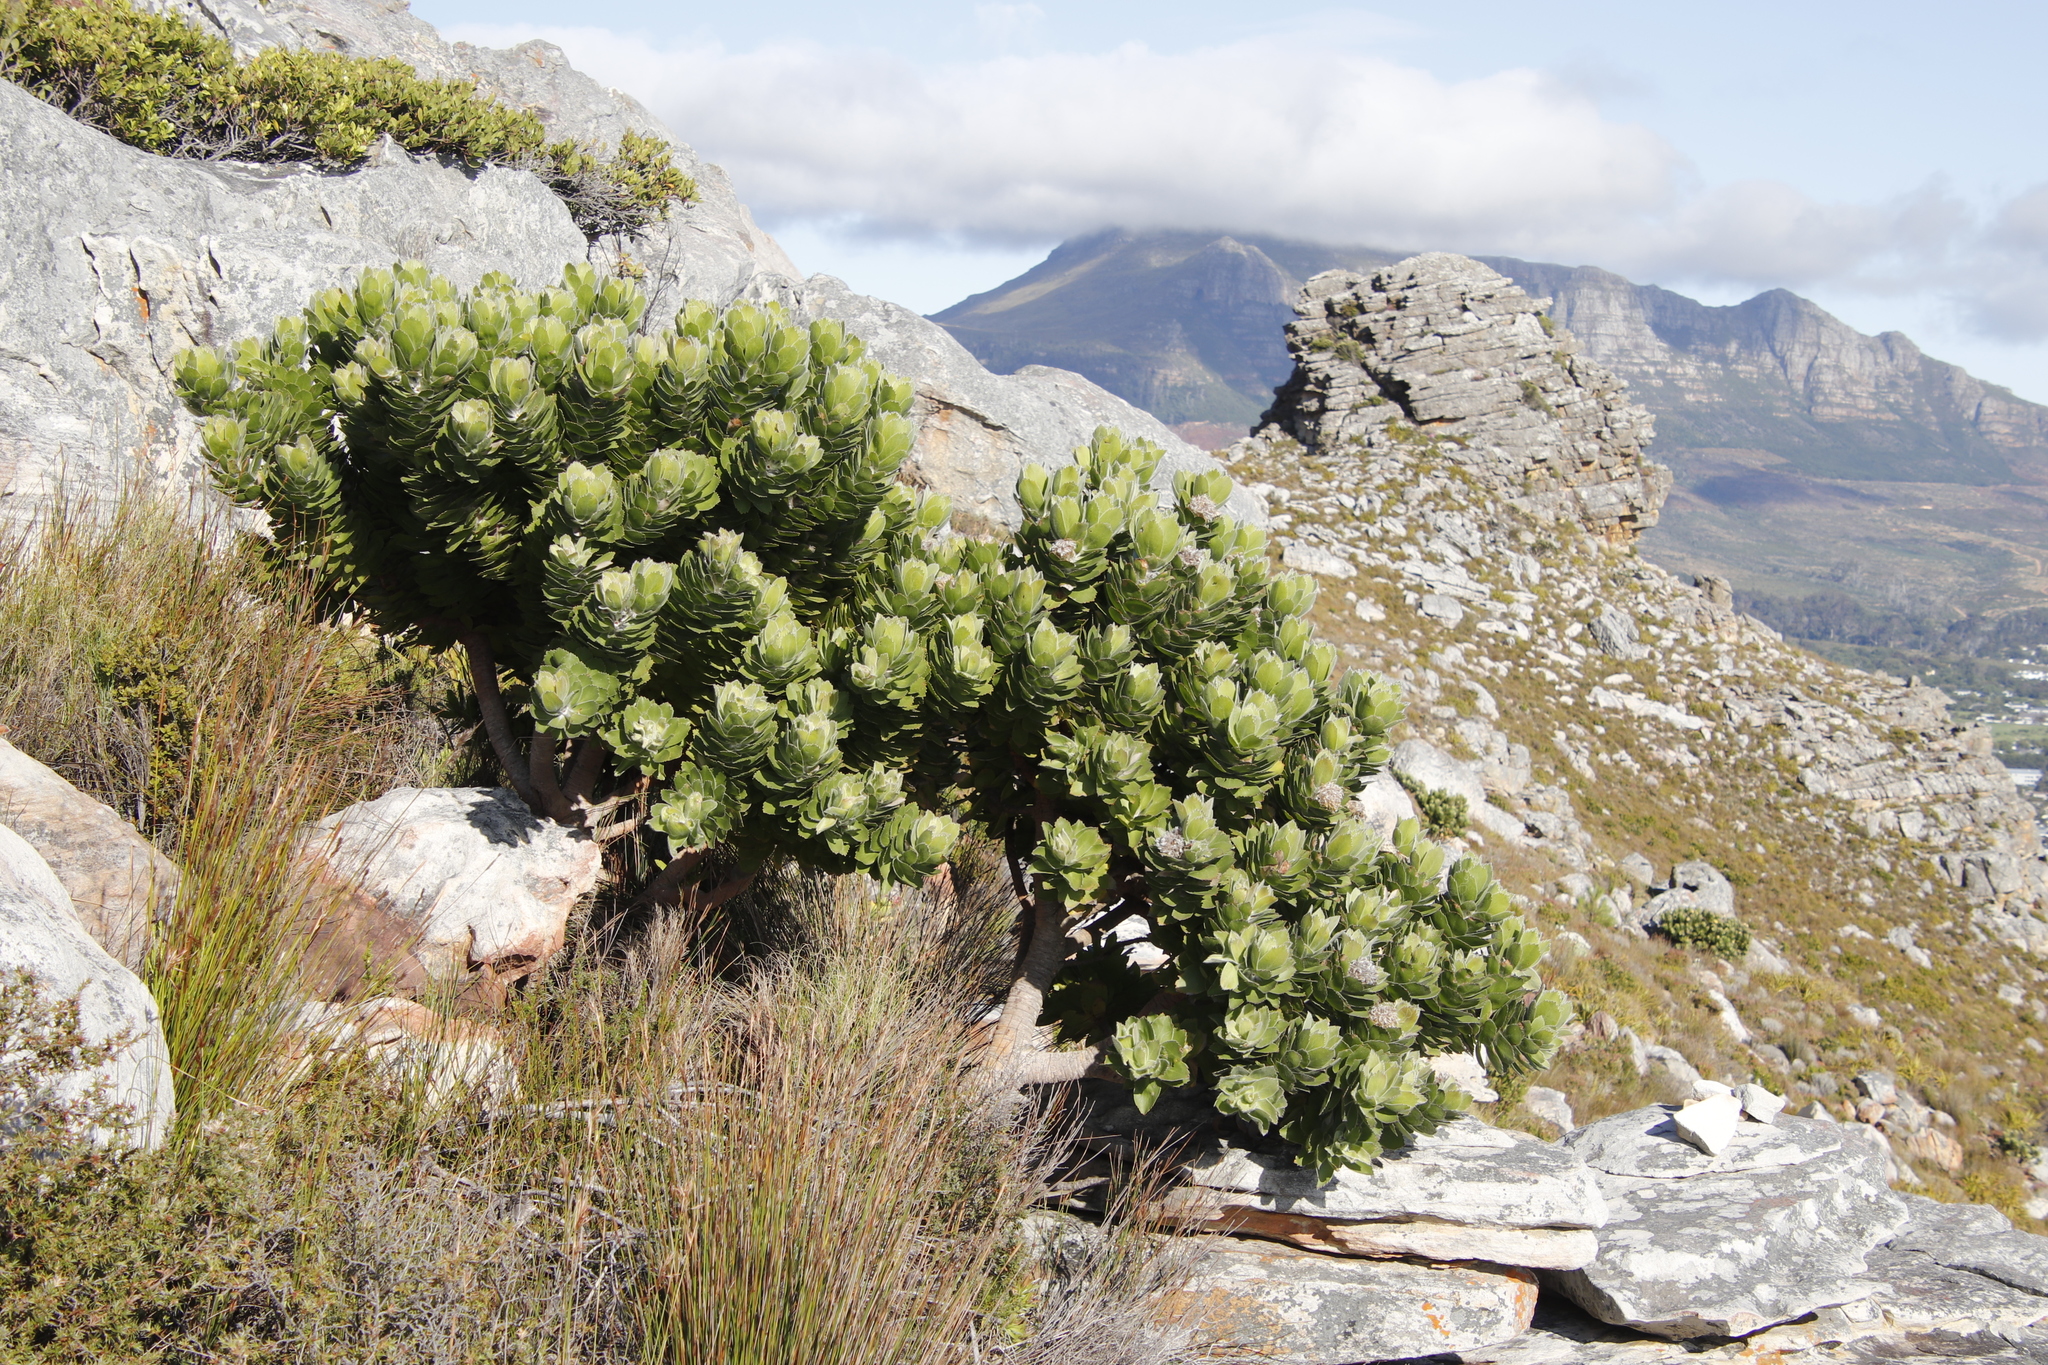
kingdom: Plantae
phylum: Tracheophyta
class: Magnoliopsida
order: Proteales
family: Proteaceae
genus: Leucospermum
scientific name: Leucospermum conocarpodendron
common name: Tree pincushion
